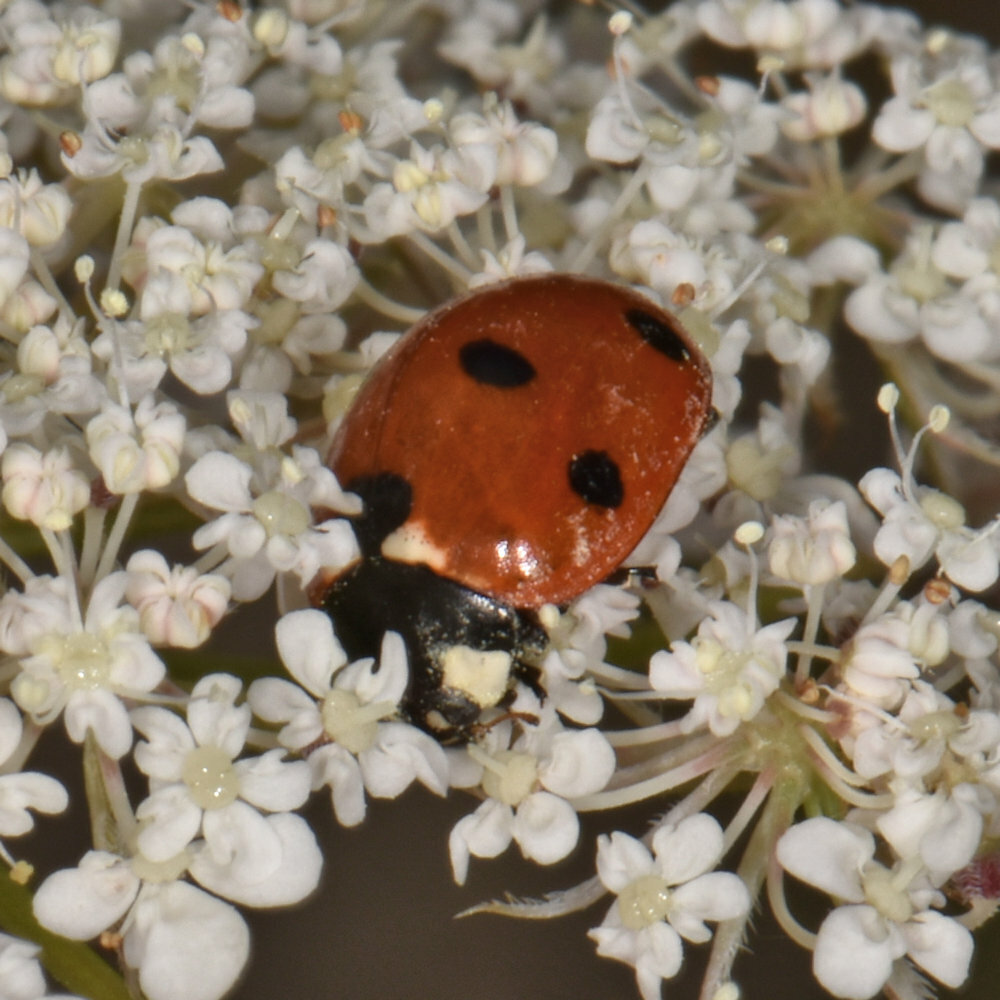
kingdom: Animalia
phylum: Arthropoda
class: Insecta
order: Coleoptera
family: Coccinellidae
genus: Coccinella
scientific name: Coccinella septempunctata
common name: Sevenspotted lady beetle
